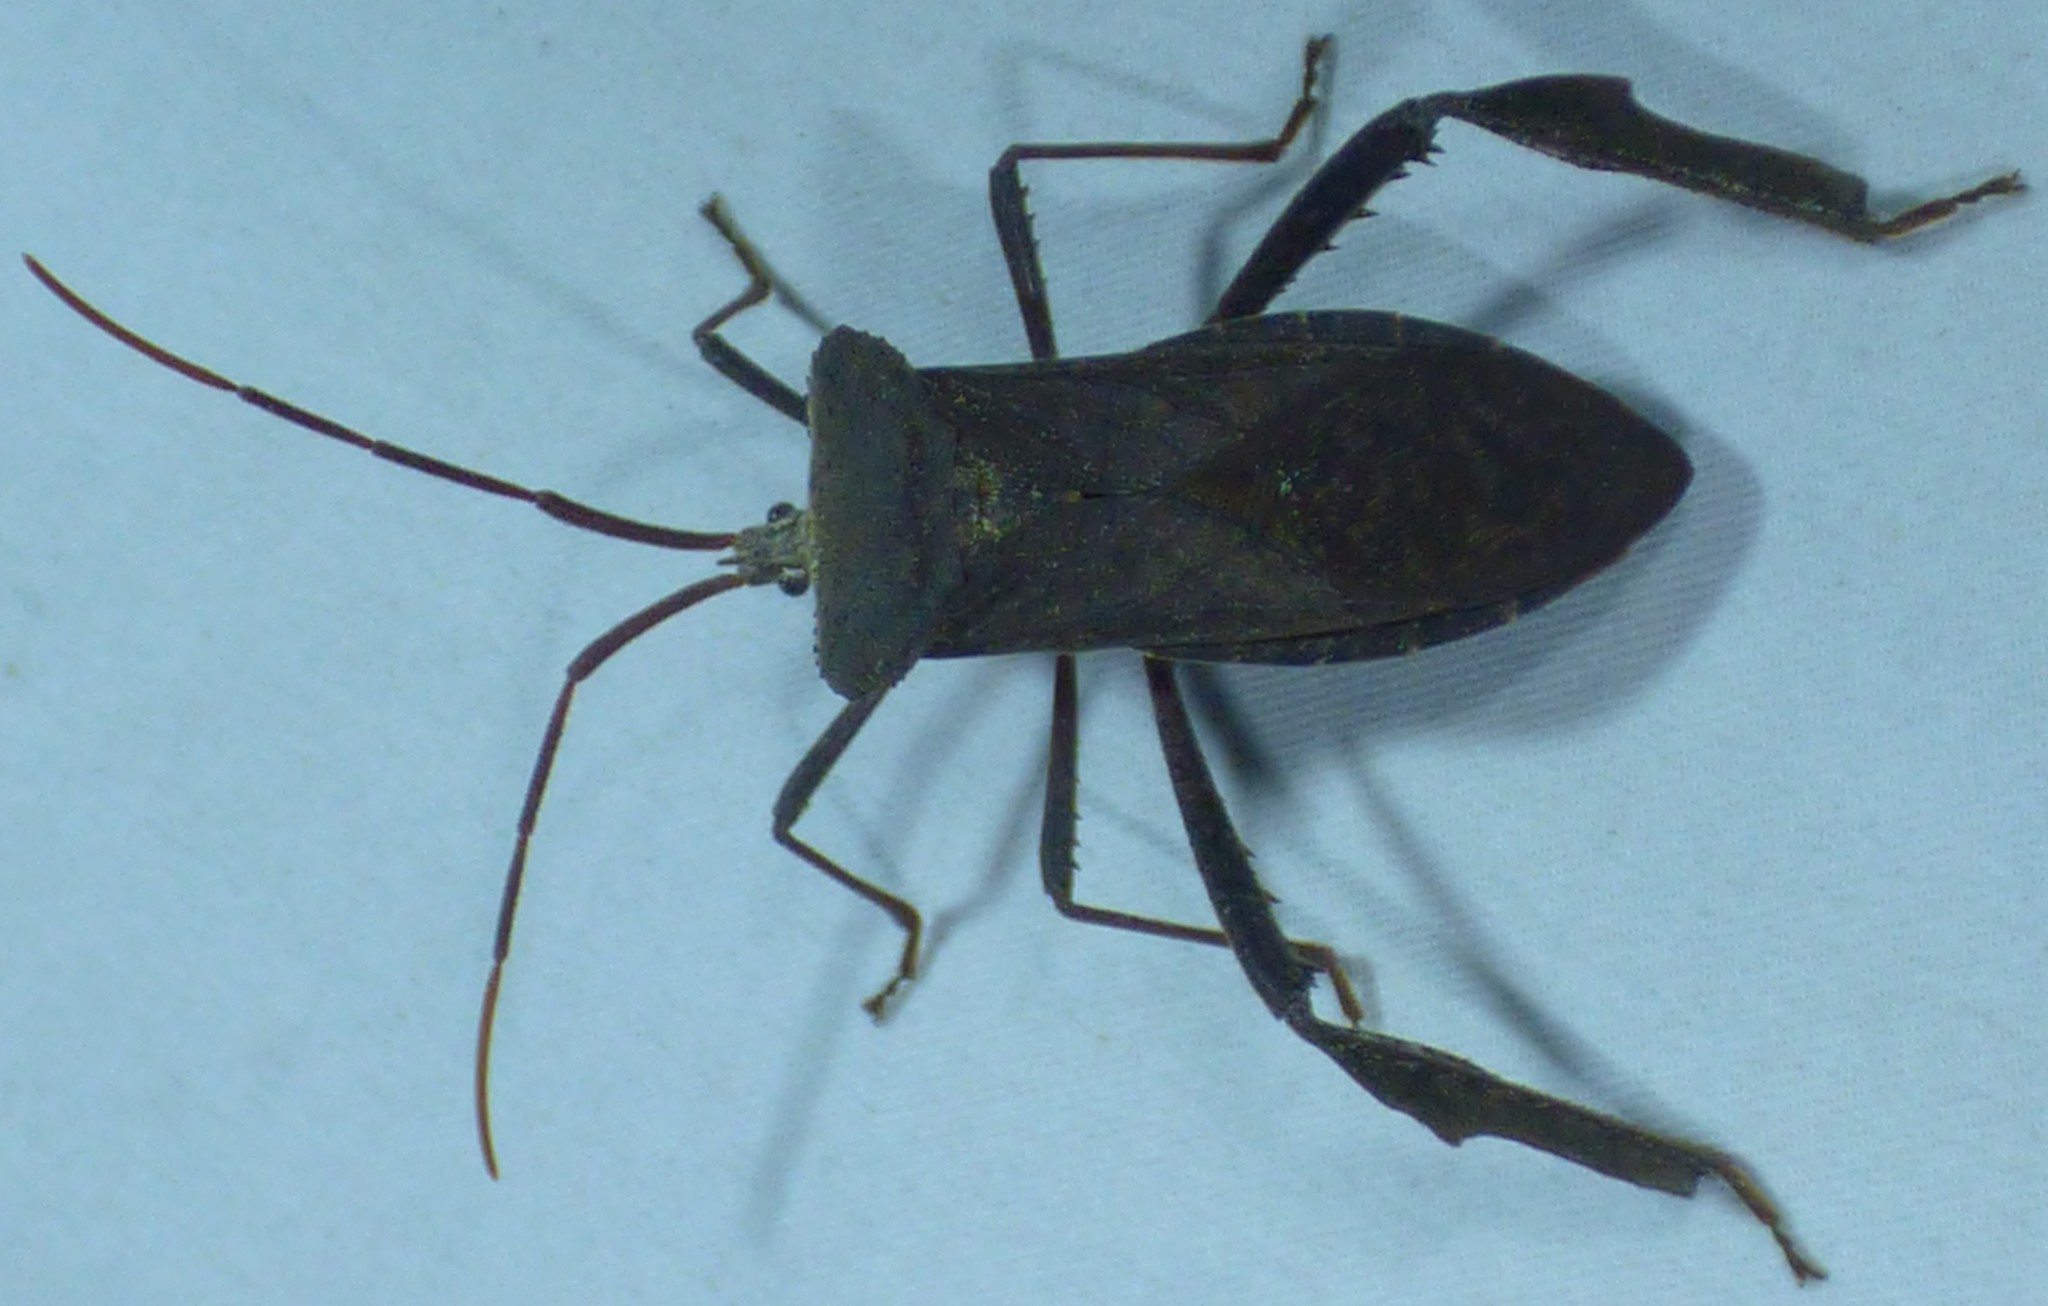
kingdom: Animalia
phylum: Arthropoda
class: Insecta
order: Hemiptera
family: Coreidae
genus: Acanthocephala
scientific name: Acanthocephala declivis
